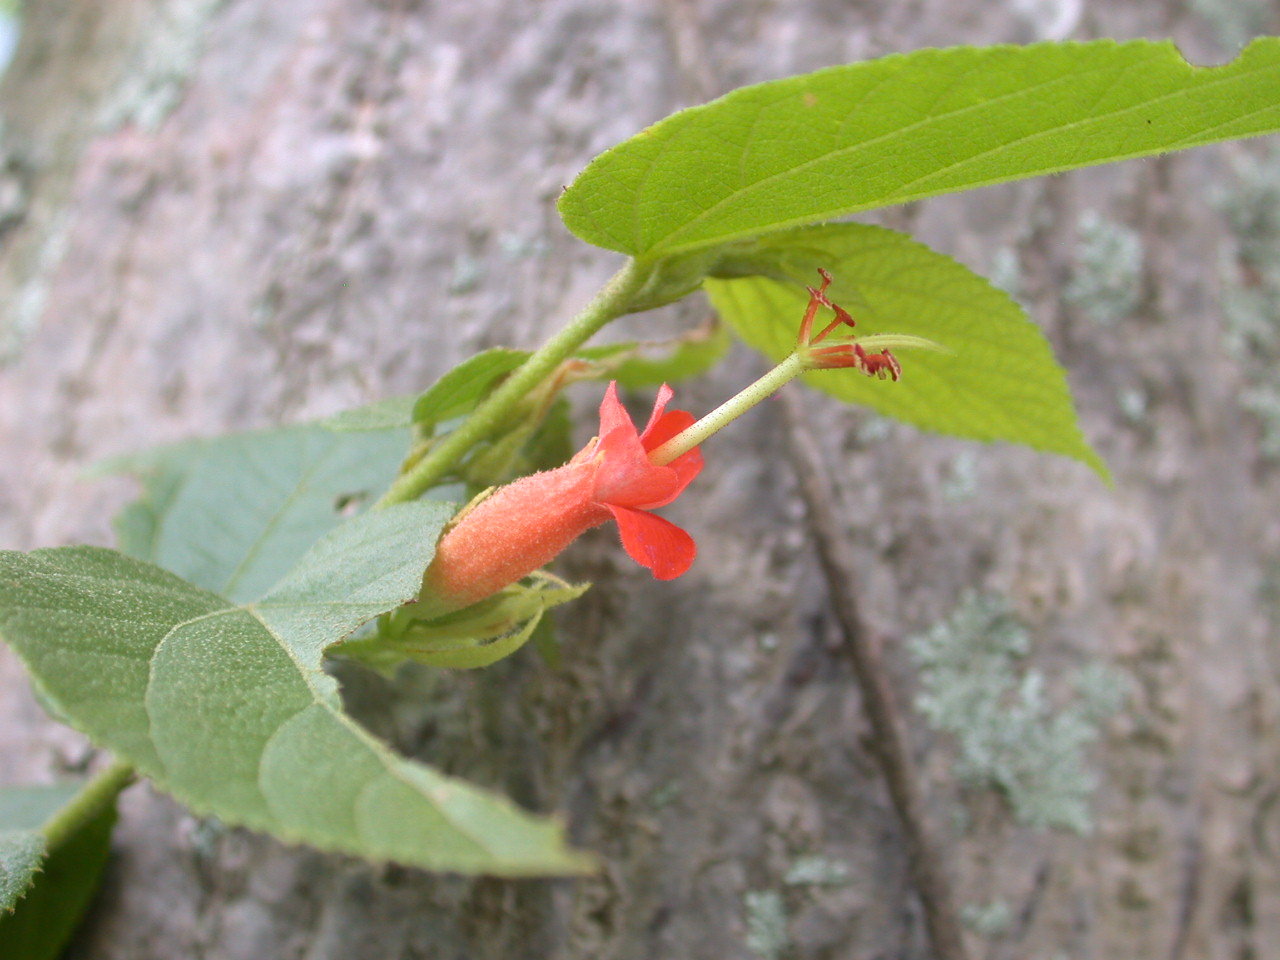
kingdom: Plantae
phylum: Tracheophyta
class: Magnoliopsida
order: Malvales
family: Malvaceae
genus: Helicteres
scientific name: Helicteres guazumifolia
